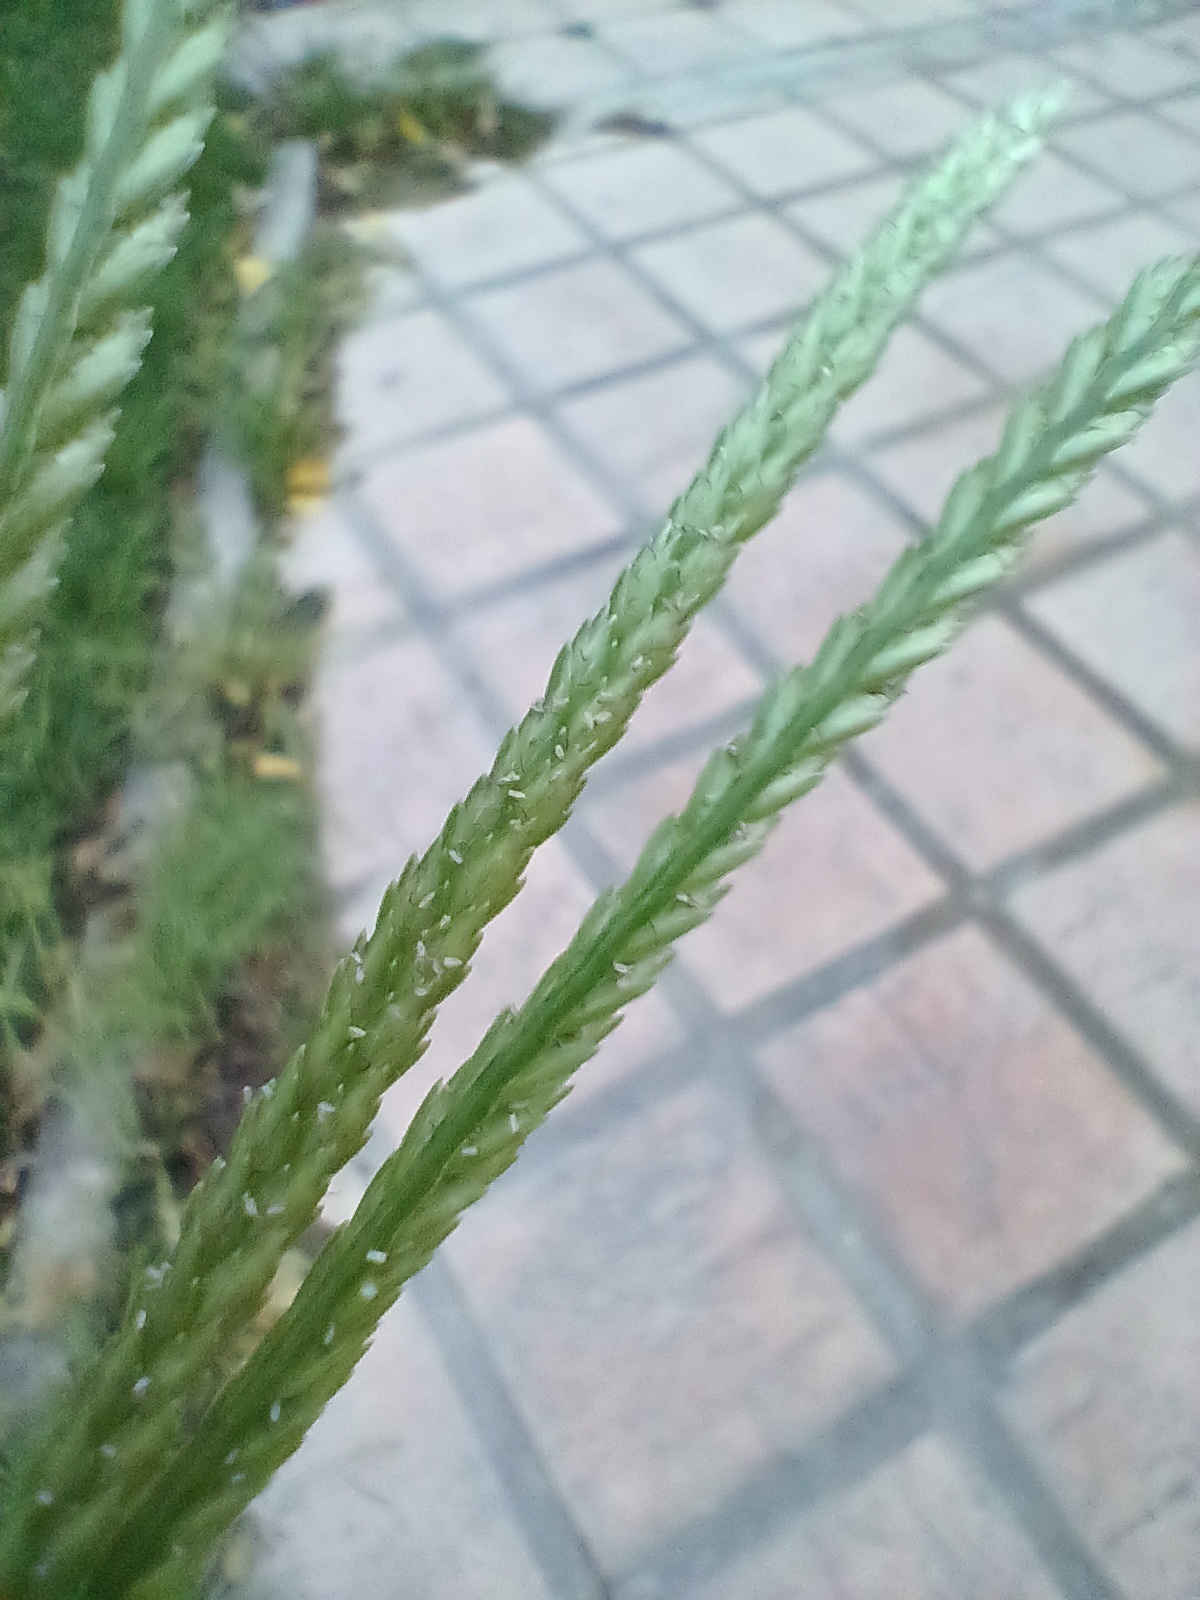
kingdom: Plantae
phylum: Tracheophyta
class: Liliopsida
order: Poales
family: Poaceae
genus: Eleusine
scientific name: Eleusine indica
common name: Yard-grass
